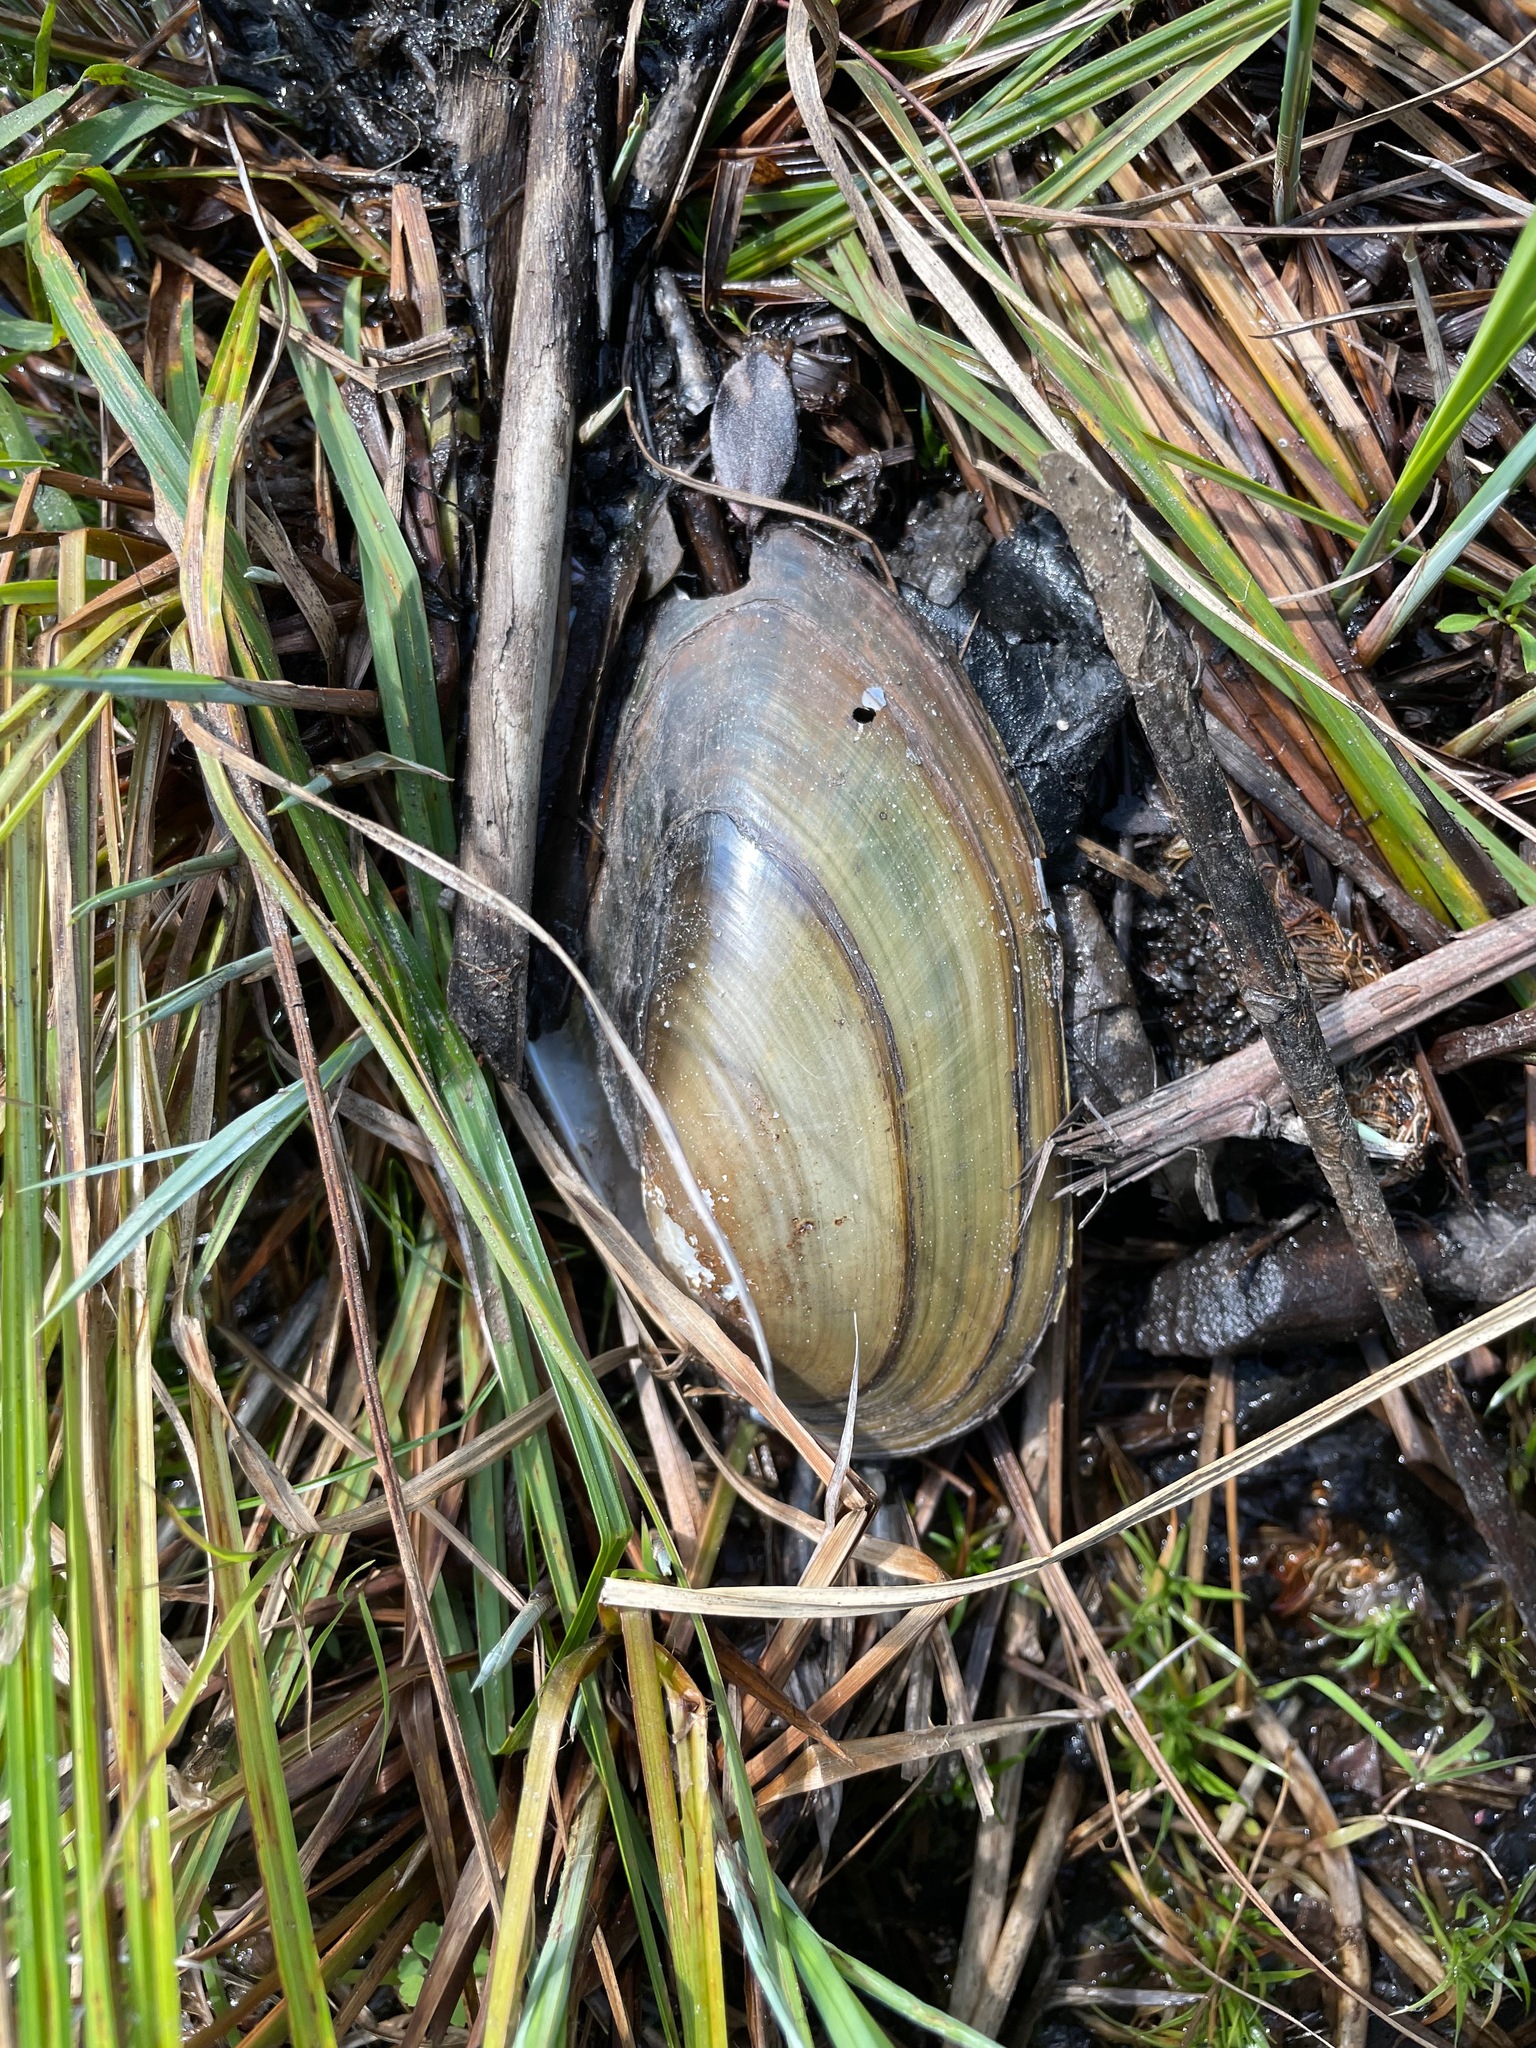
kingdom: Animalia
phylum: Mollusca
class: Bivalvia
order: Unionida
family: Unionidae
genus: Pyganodon
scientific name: Pyganodon cataracta
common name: Eastern floater
